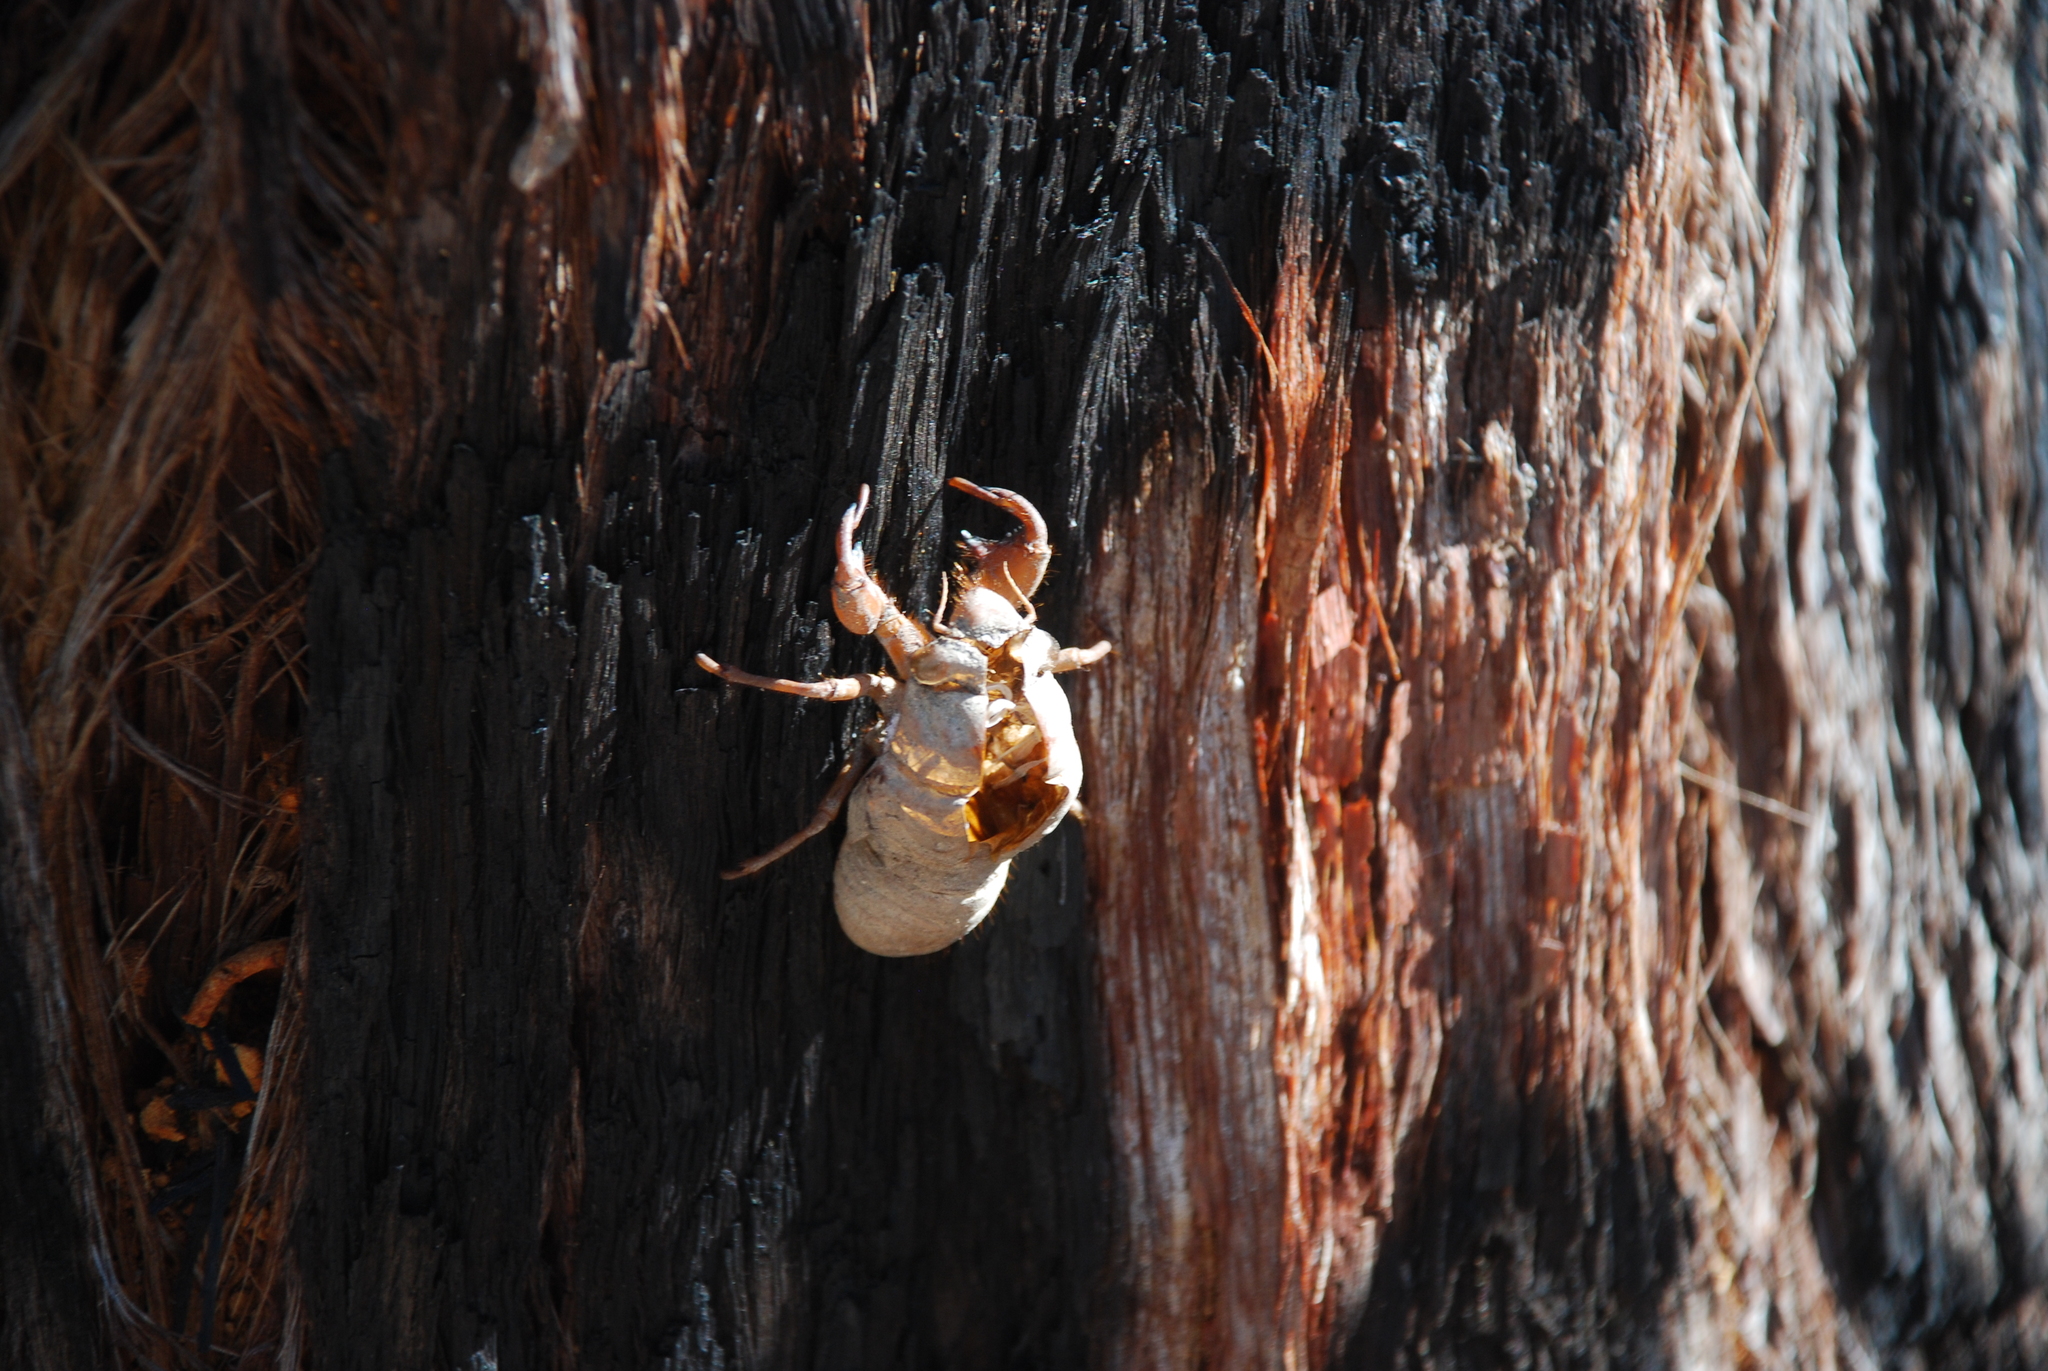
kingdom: Animalia
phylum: Arthropoda
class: Insecta
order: Hemiptera
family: Cicadidae
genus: Thopha
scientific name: Thopha saccata
